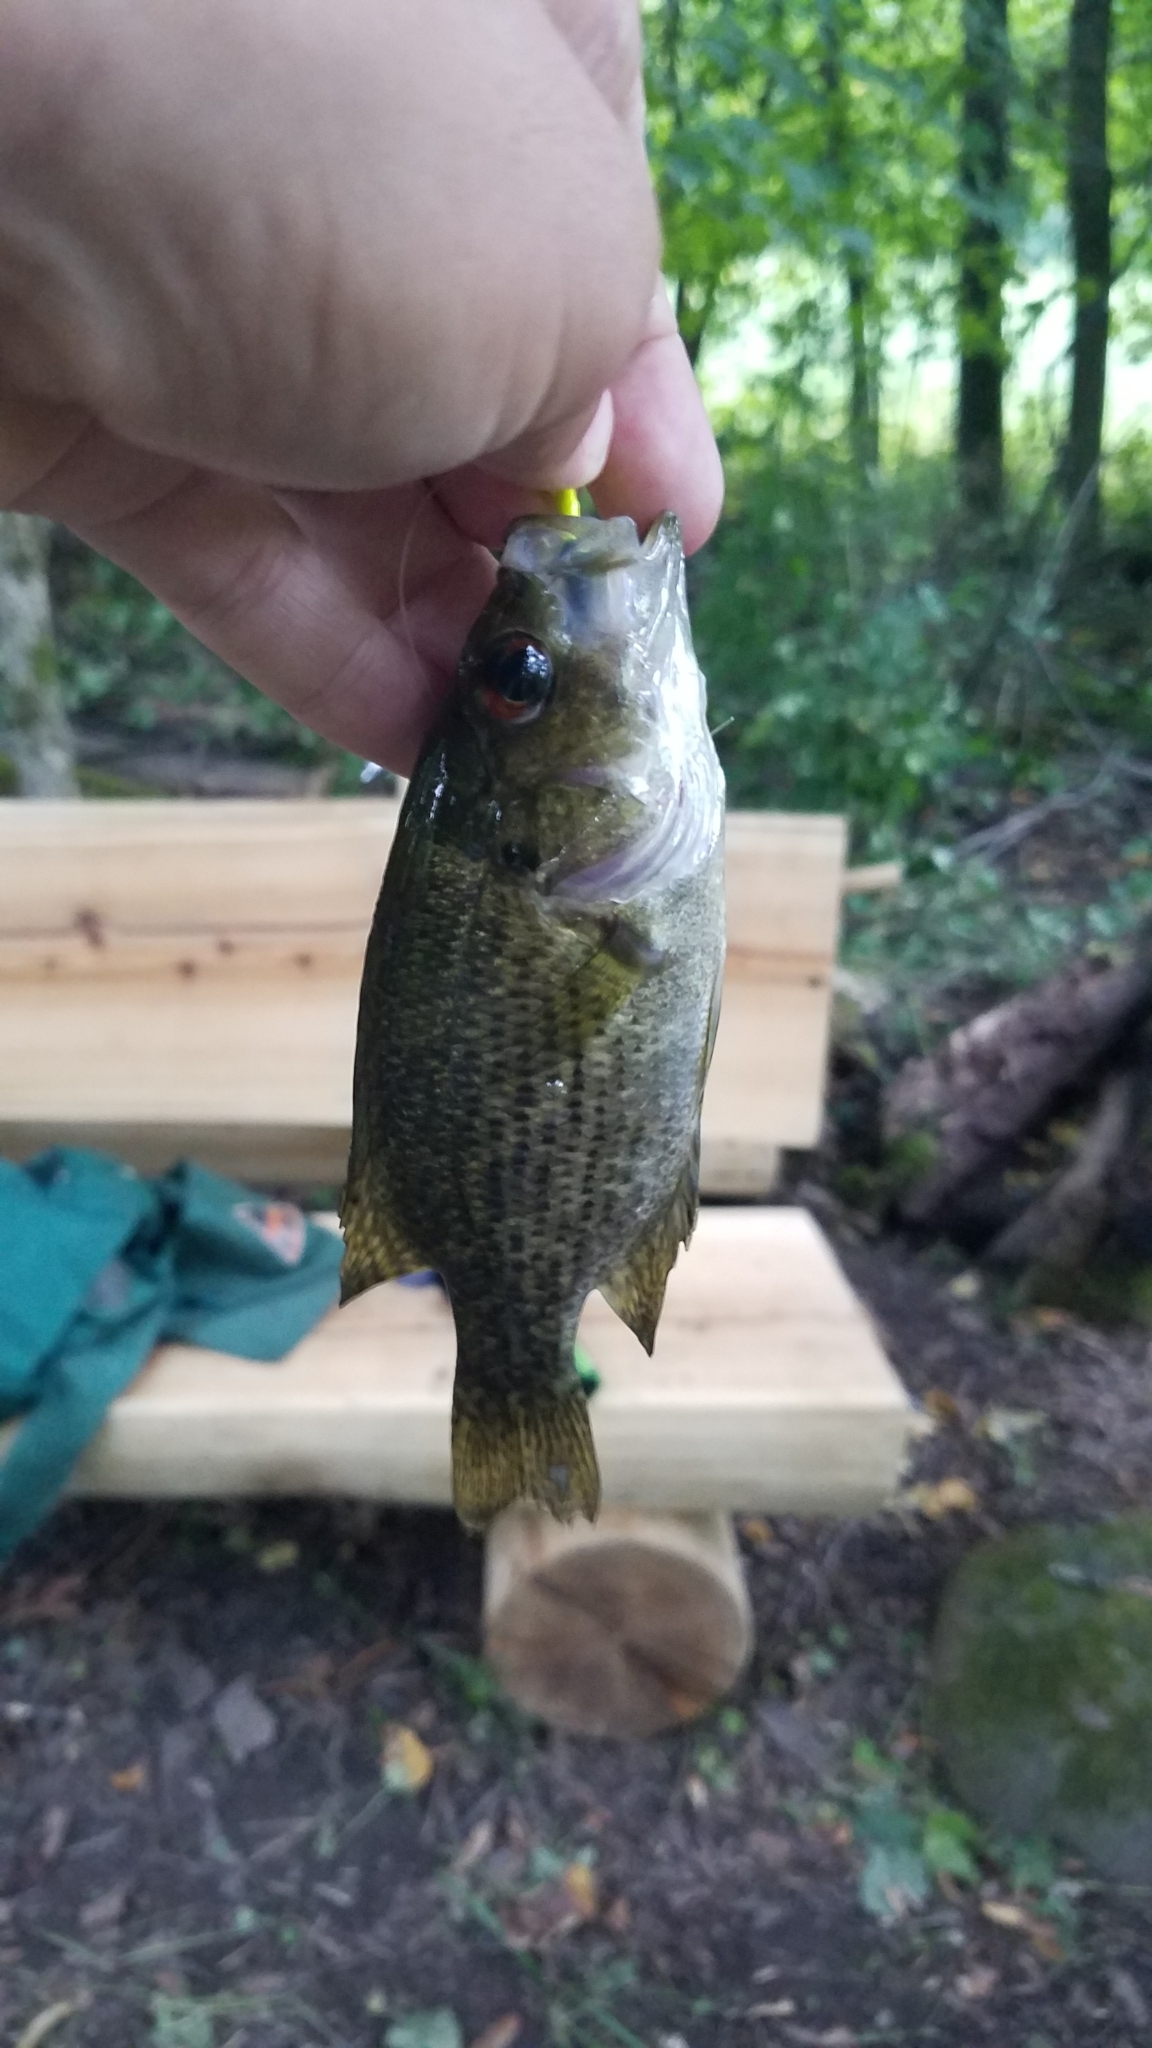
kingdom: Animalia
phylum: Chordata
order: Perciformes
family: Centrarchidae
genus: Ambloplites
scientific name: Ambloplites rupestris
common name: Rock bass
